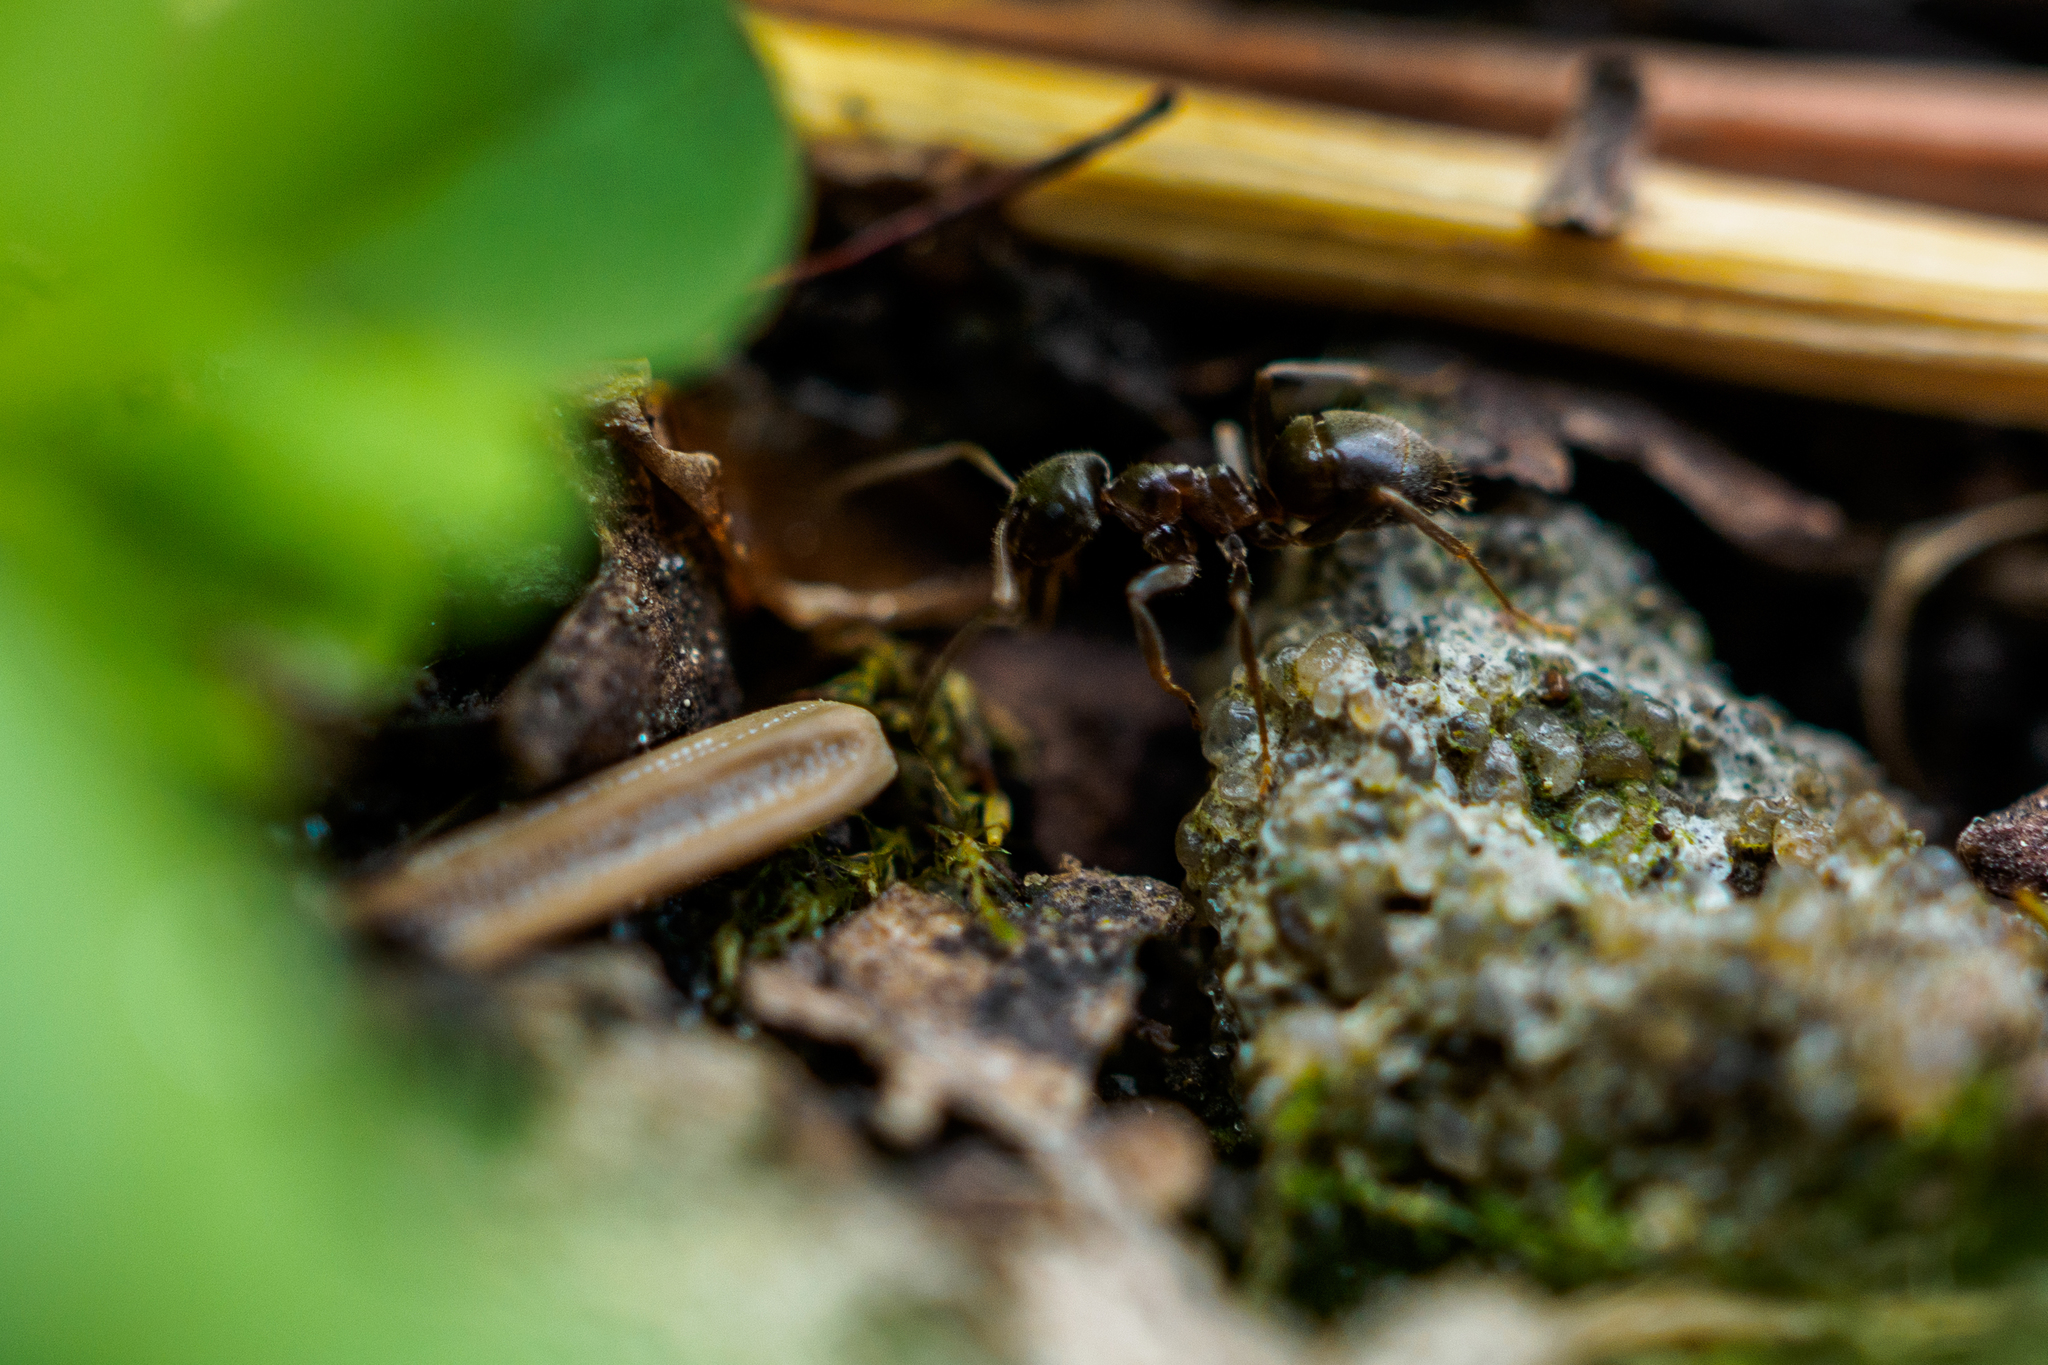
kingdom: Animalia
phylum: Arthropoda
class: Insecta
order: Hymenoptera
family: Formicidae
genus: Lasius
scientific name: Lasius niger
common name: Small black ant
